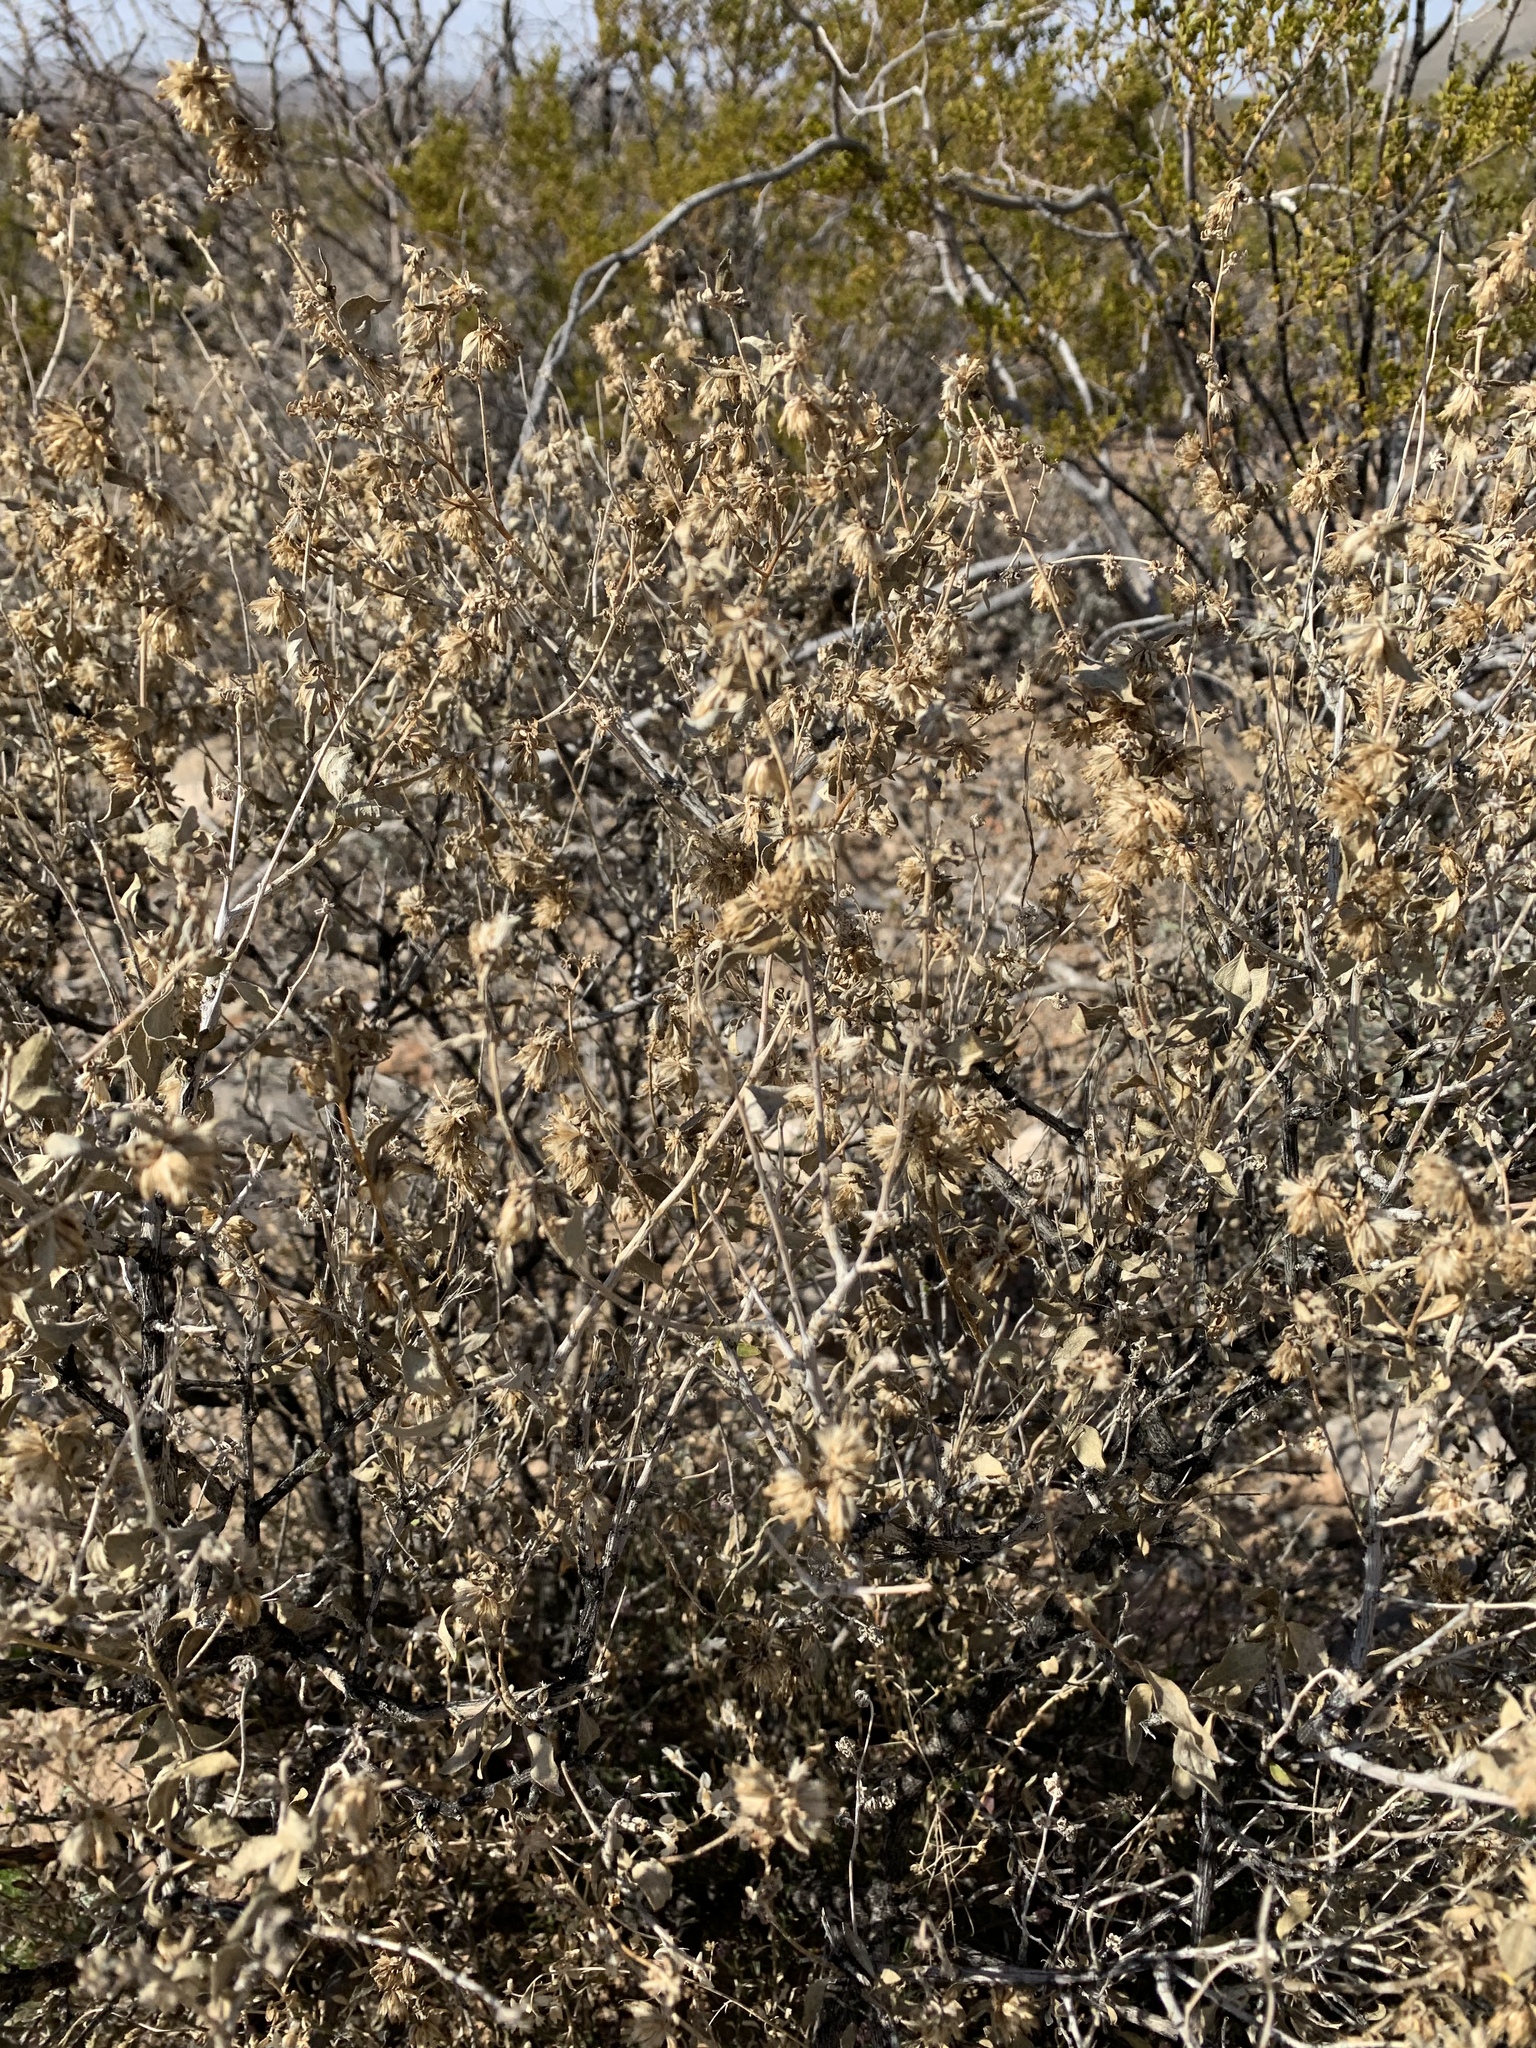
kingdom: Plantae
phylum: Tracheophyta
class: Magnoliopsida
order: Asterales
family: Asteraceae
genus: Flourensia
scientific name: Flourensia cernua
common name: Varnishbush
